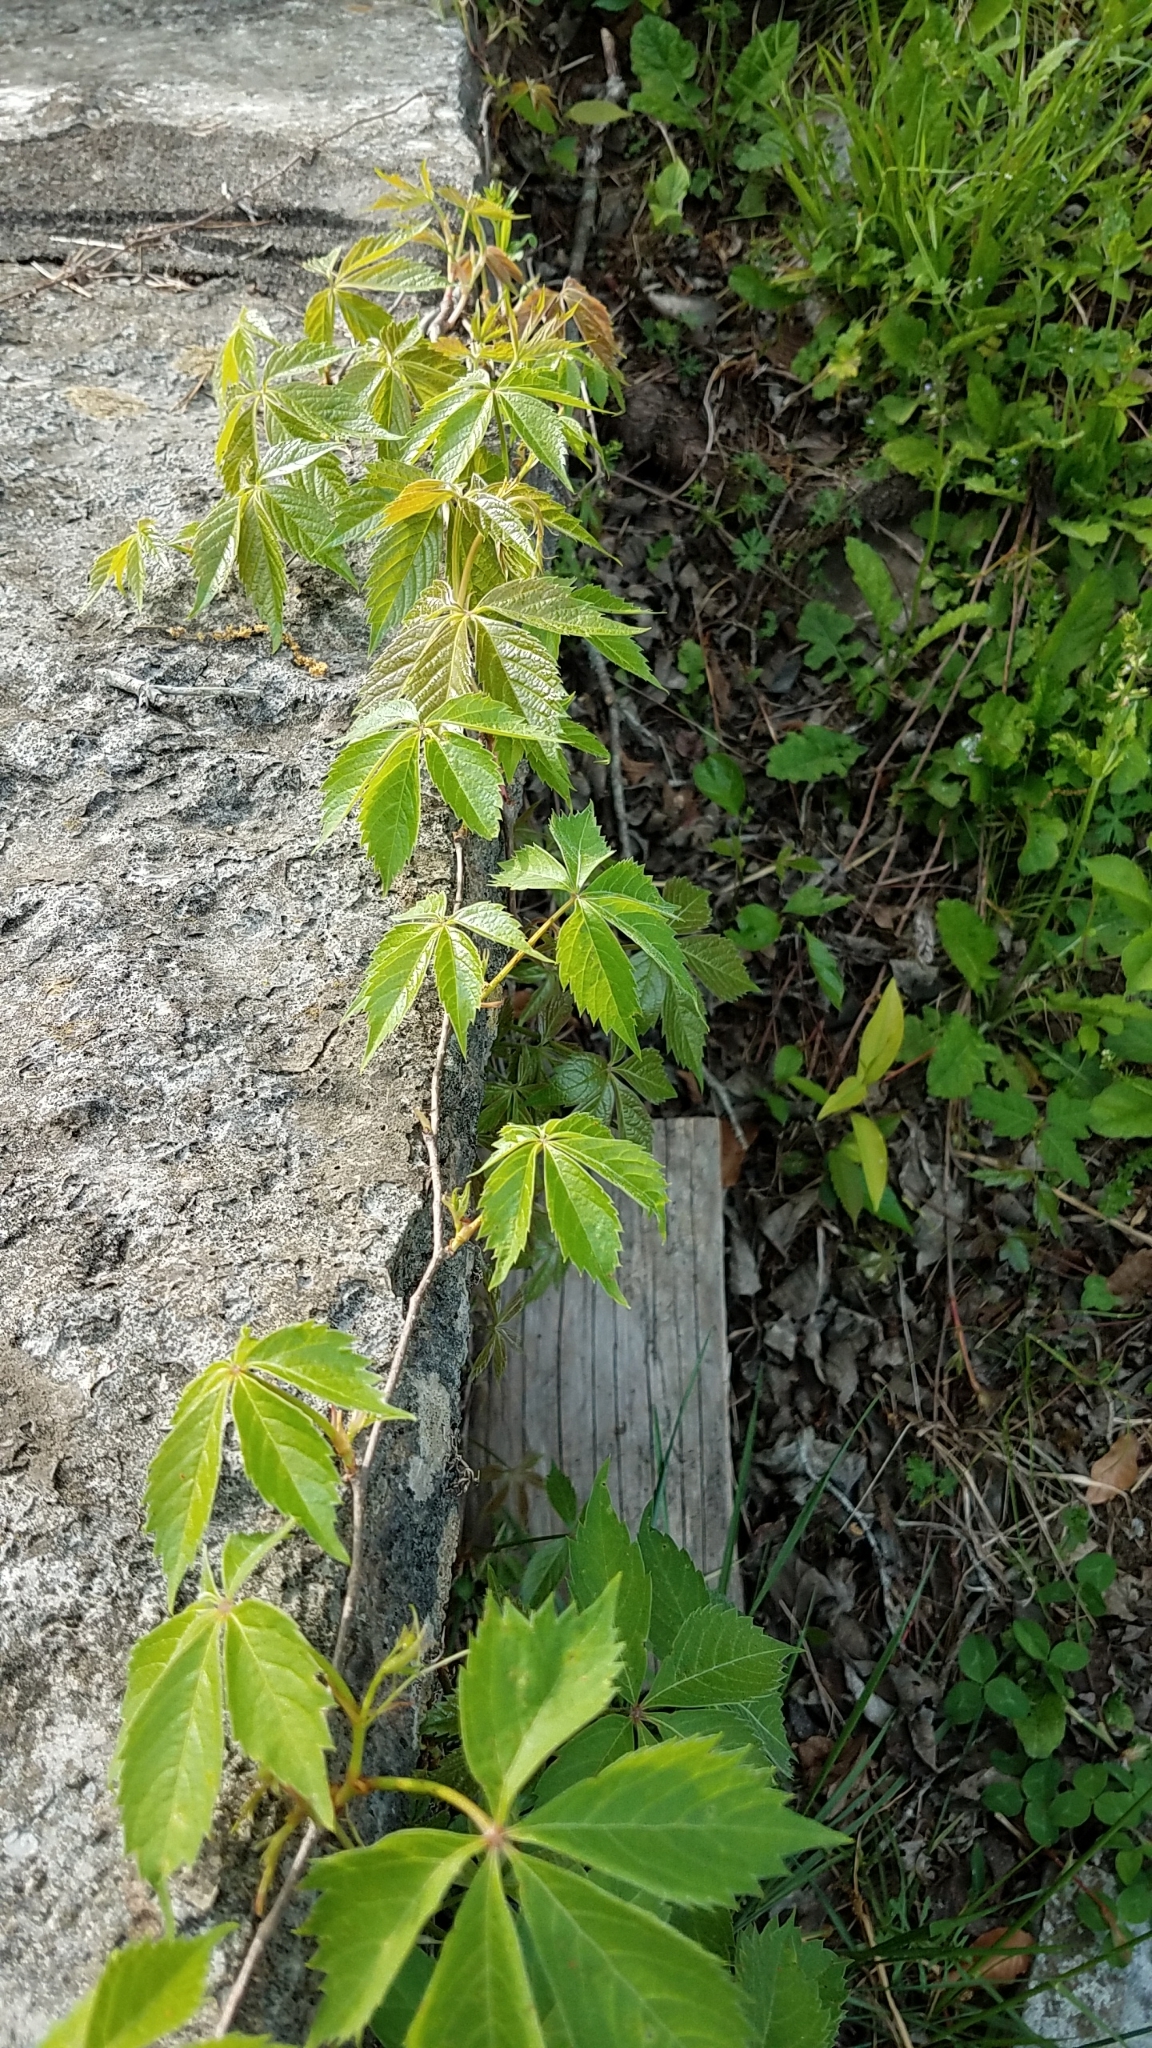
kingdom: Plantae
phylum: Tracheophyta
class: Magnoliopsida
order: Vitales
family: Vitaceae
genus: Parthenocissus
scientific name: Parthenocissus quinquefolia
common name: Virginia-creeper
